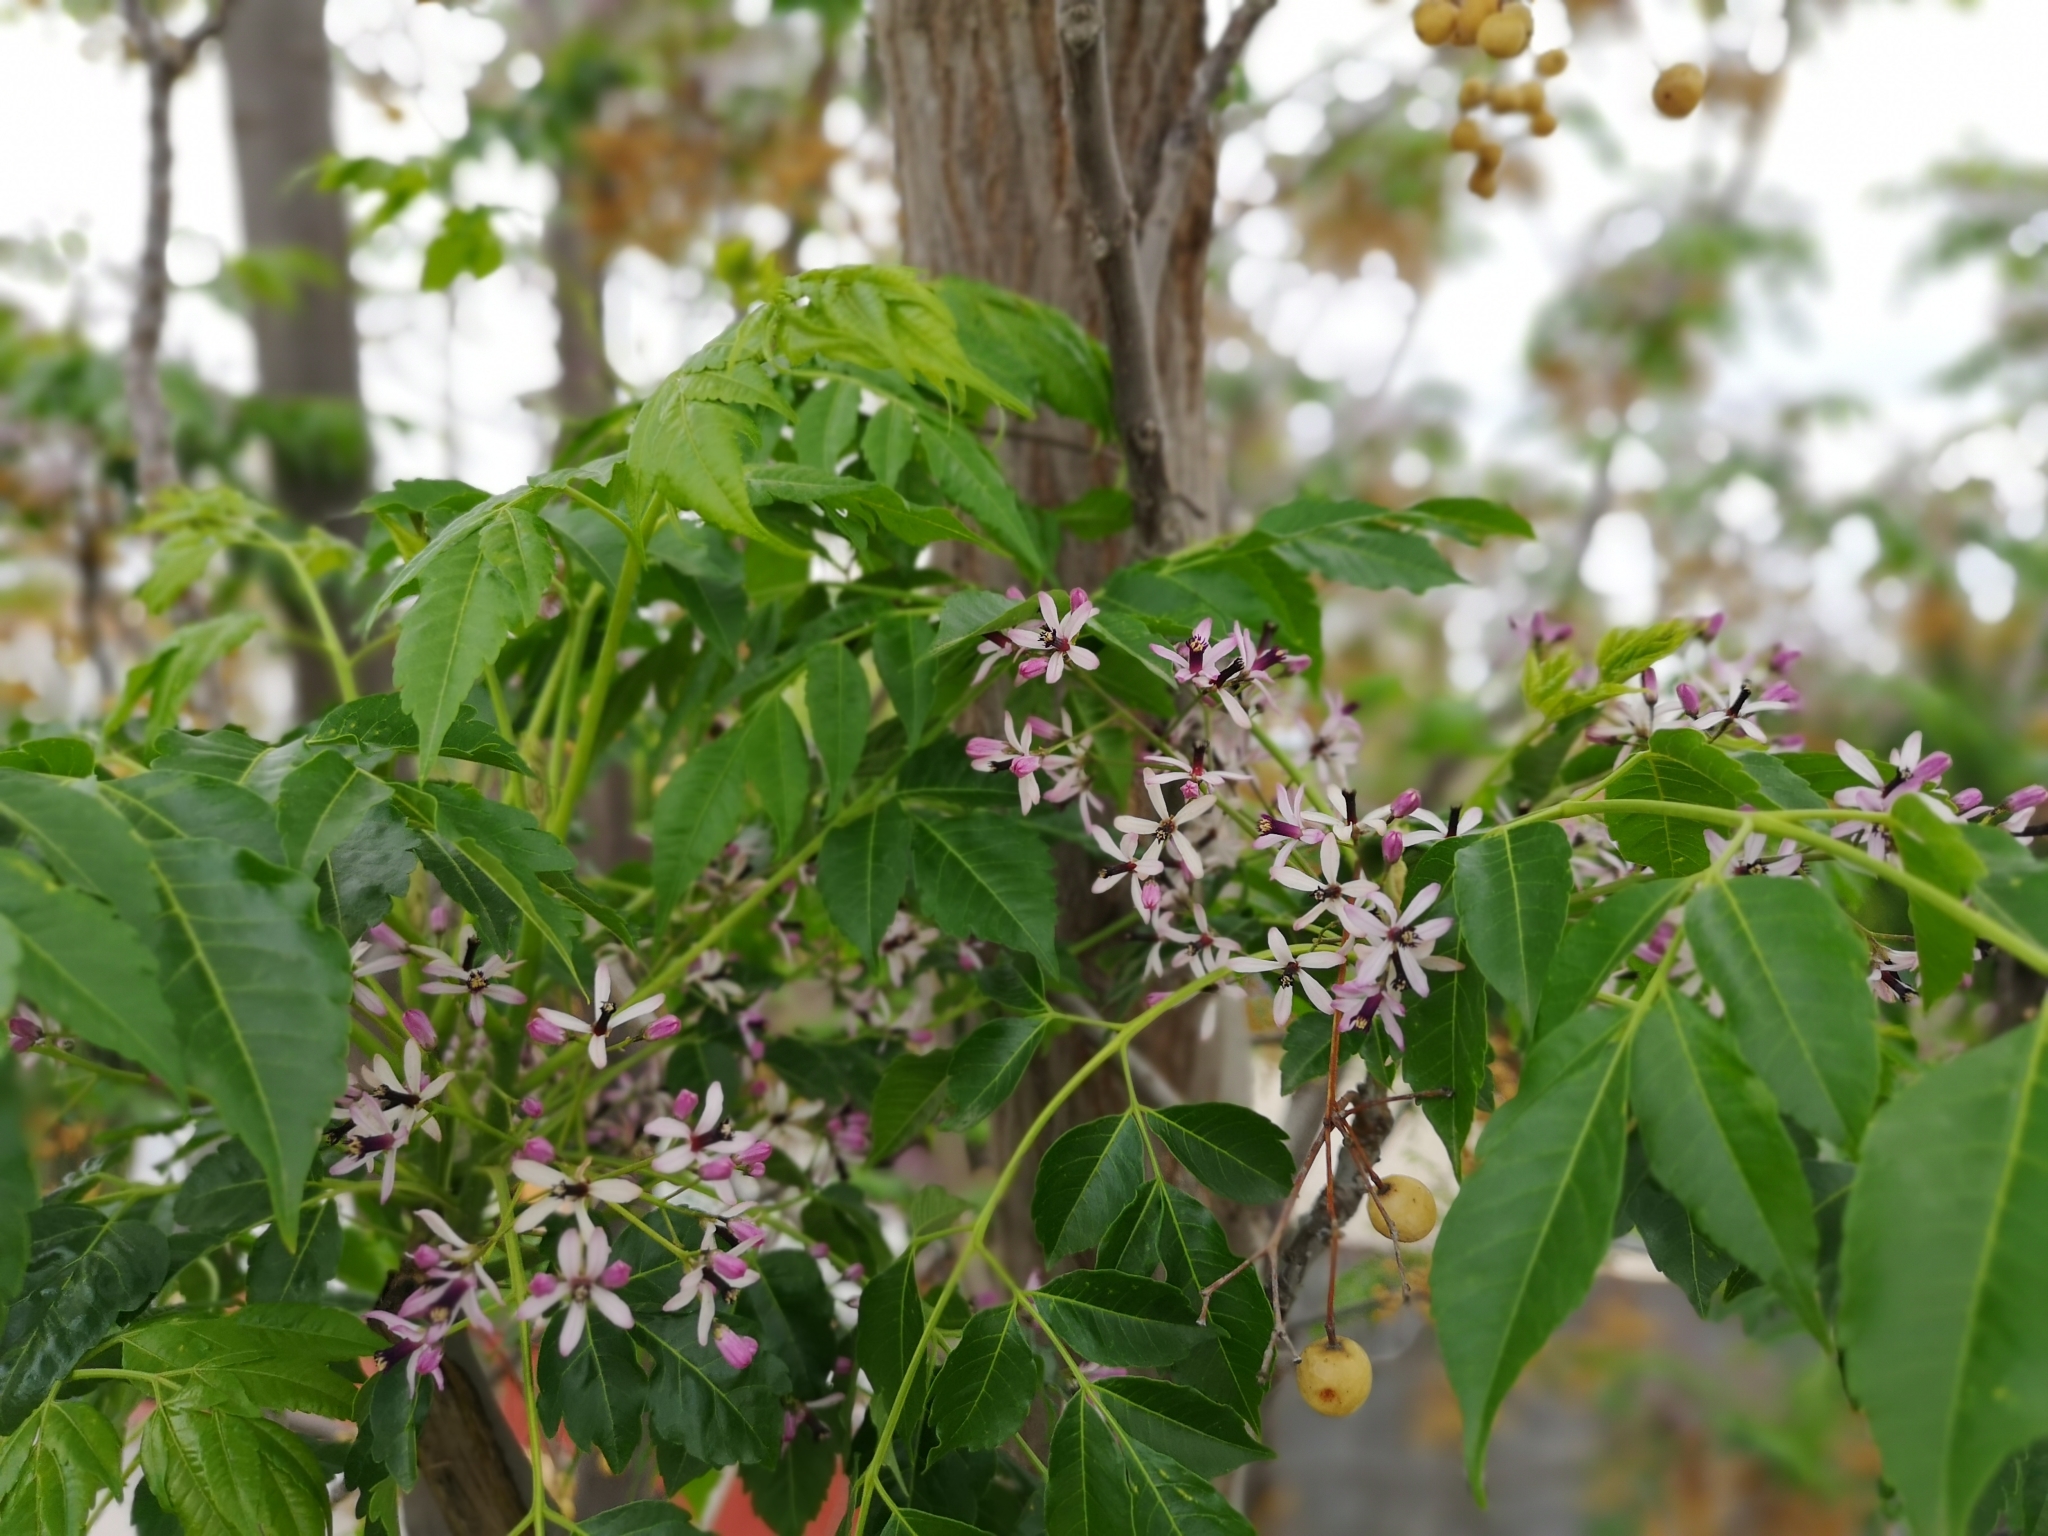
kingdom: Plantae
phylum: Tracheophyta
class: Magnoliopsida
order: Sapindales
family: Meliaceae
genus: Melia
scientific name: Melia azedarach
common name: Chinaberrytree
